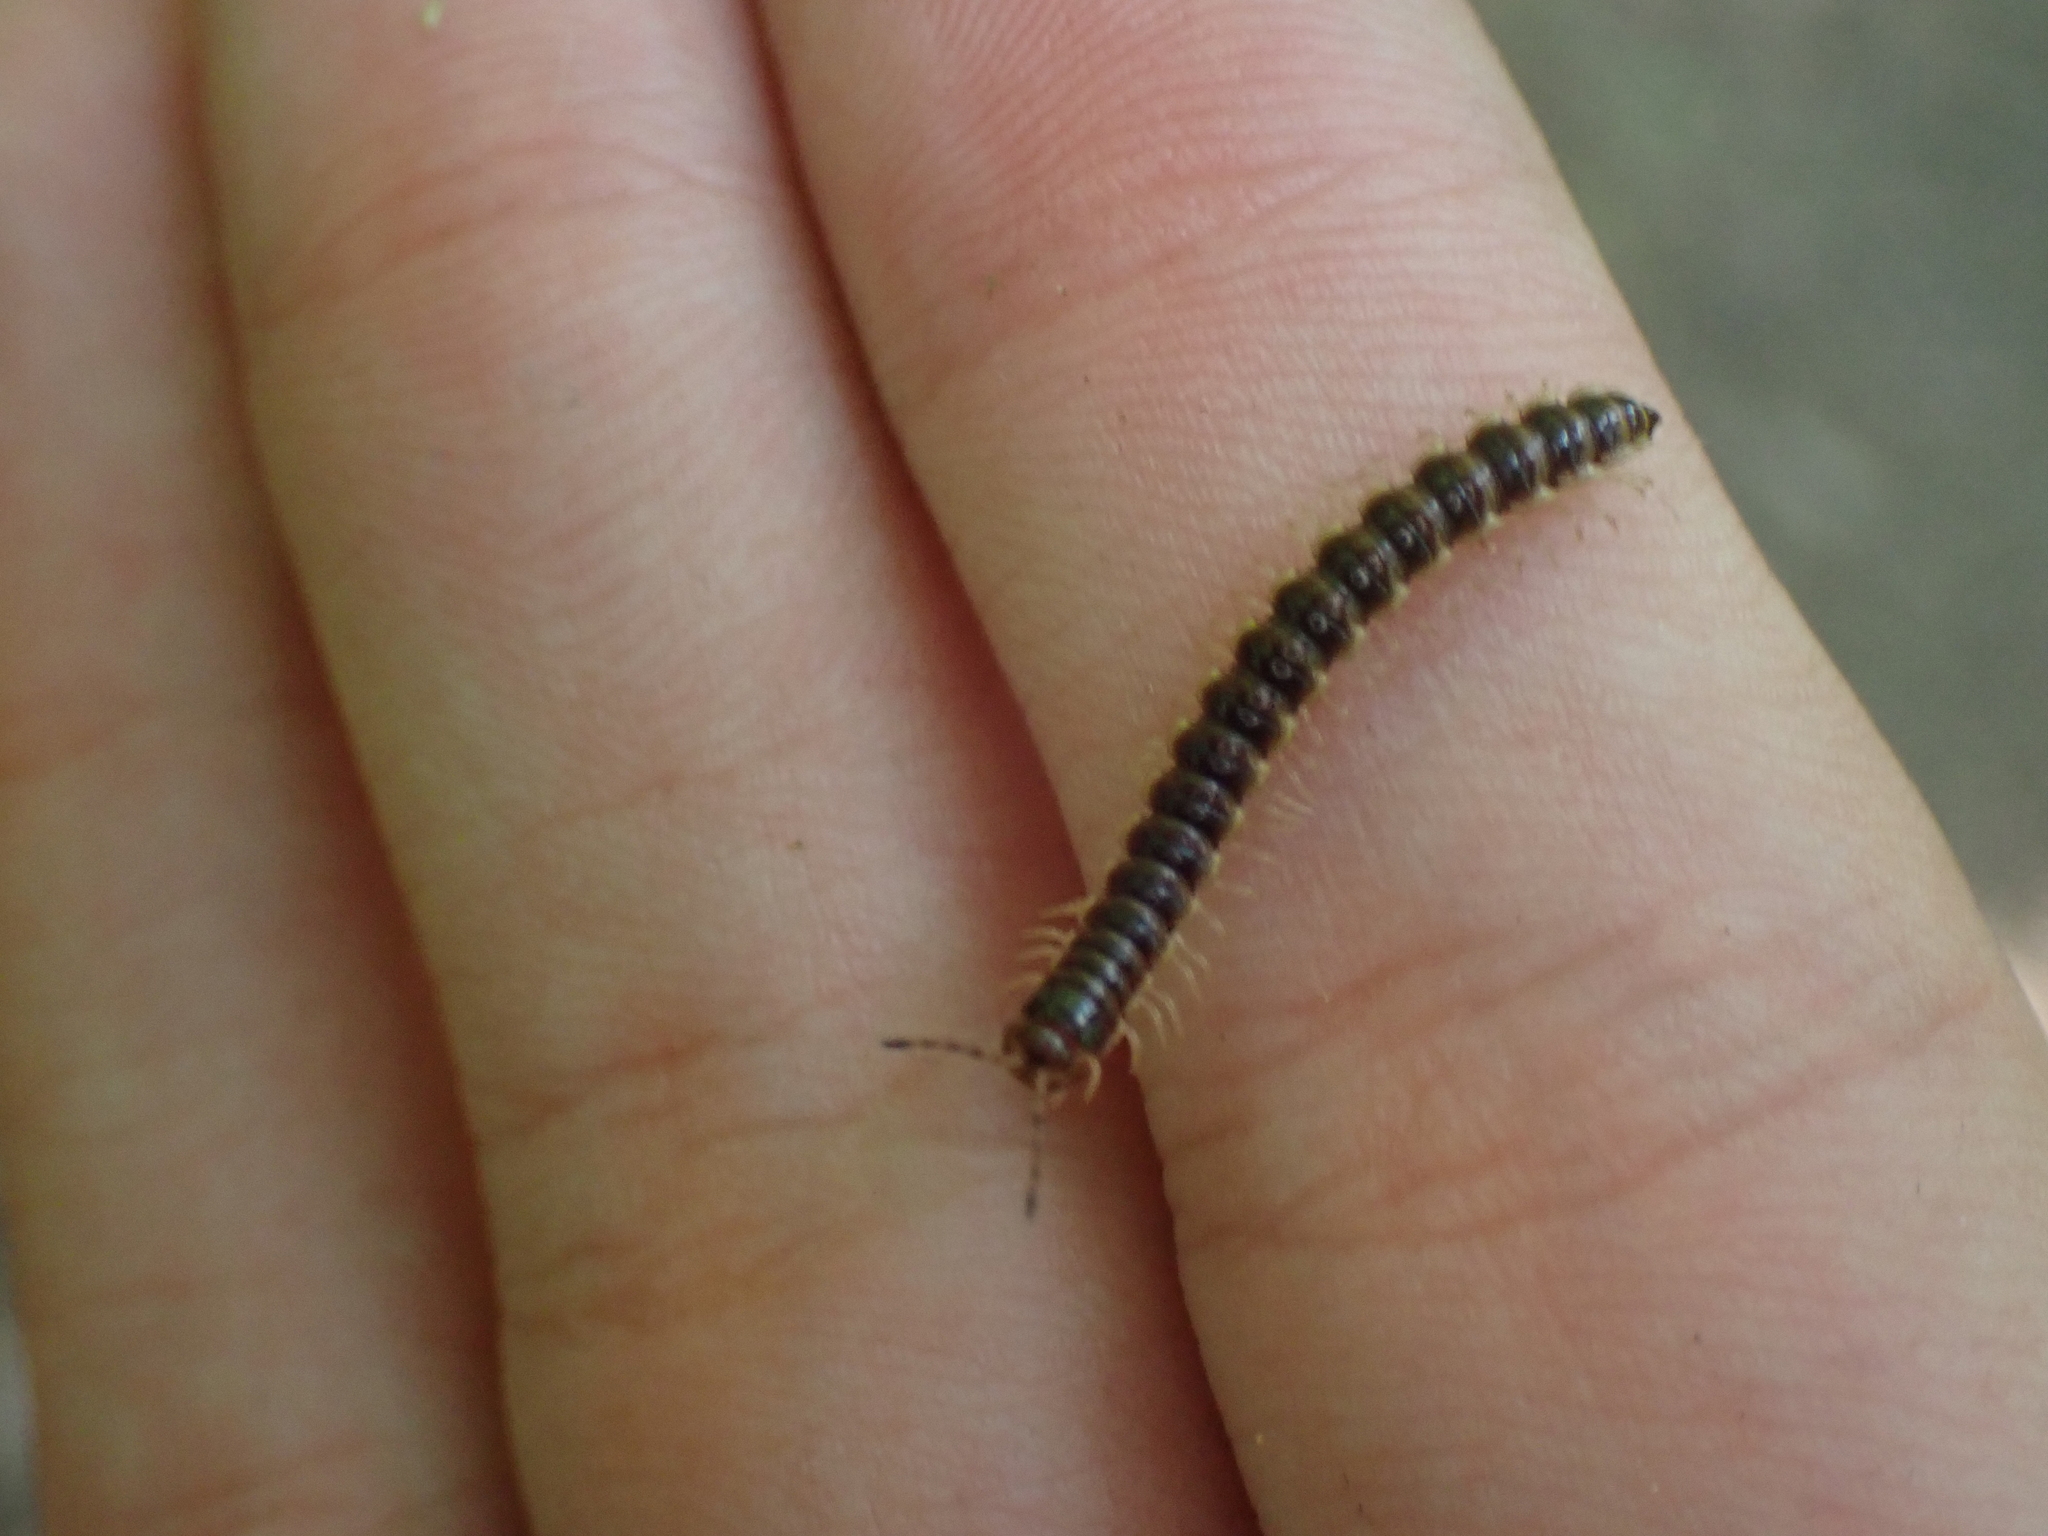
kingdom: Animalia
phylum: Arthropoda
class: Diplopoda
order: Polydesmida
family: Paradoxosomatidae
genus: Oxidus
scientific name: Oxidus gracilis
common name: Greenhouse millipede
